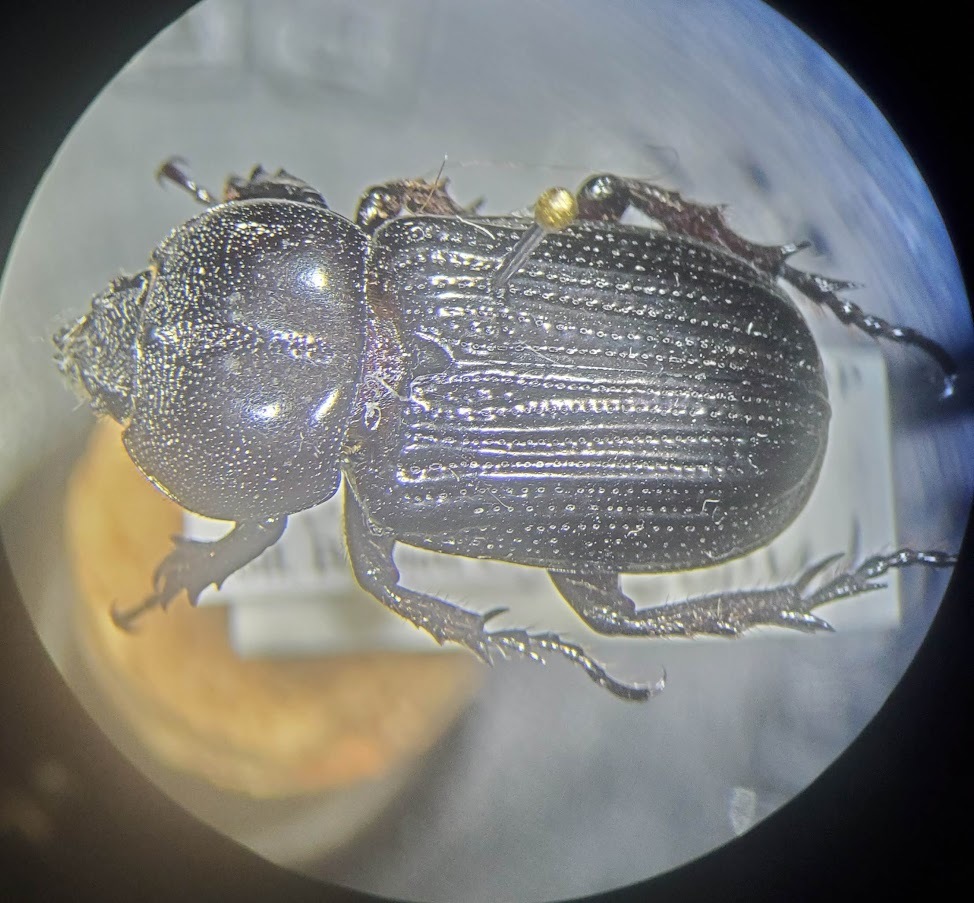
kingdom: Animalia
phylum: Arthropoda
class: Insecta
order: Coleoptera
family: Scarabaeidae
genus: Phileurus
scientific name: Phileurus valgus
